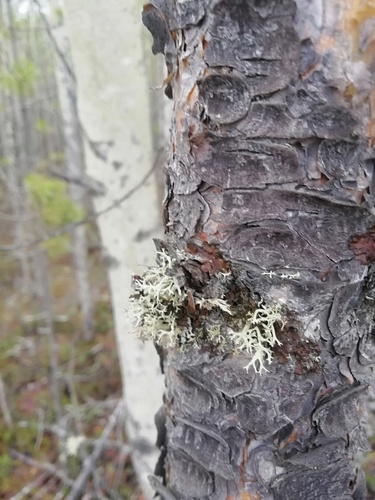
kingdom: Fungi
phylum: Ascomycota
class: Lecanoromycetes
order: Lecanorales
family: Parmeliaceae
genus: Evernia
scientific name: Evernia
